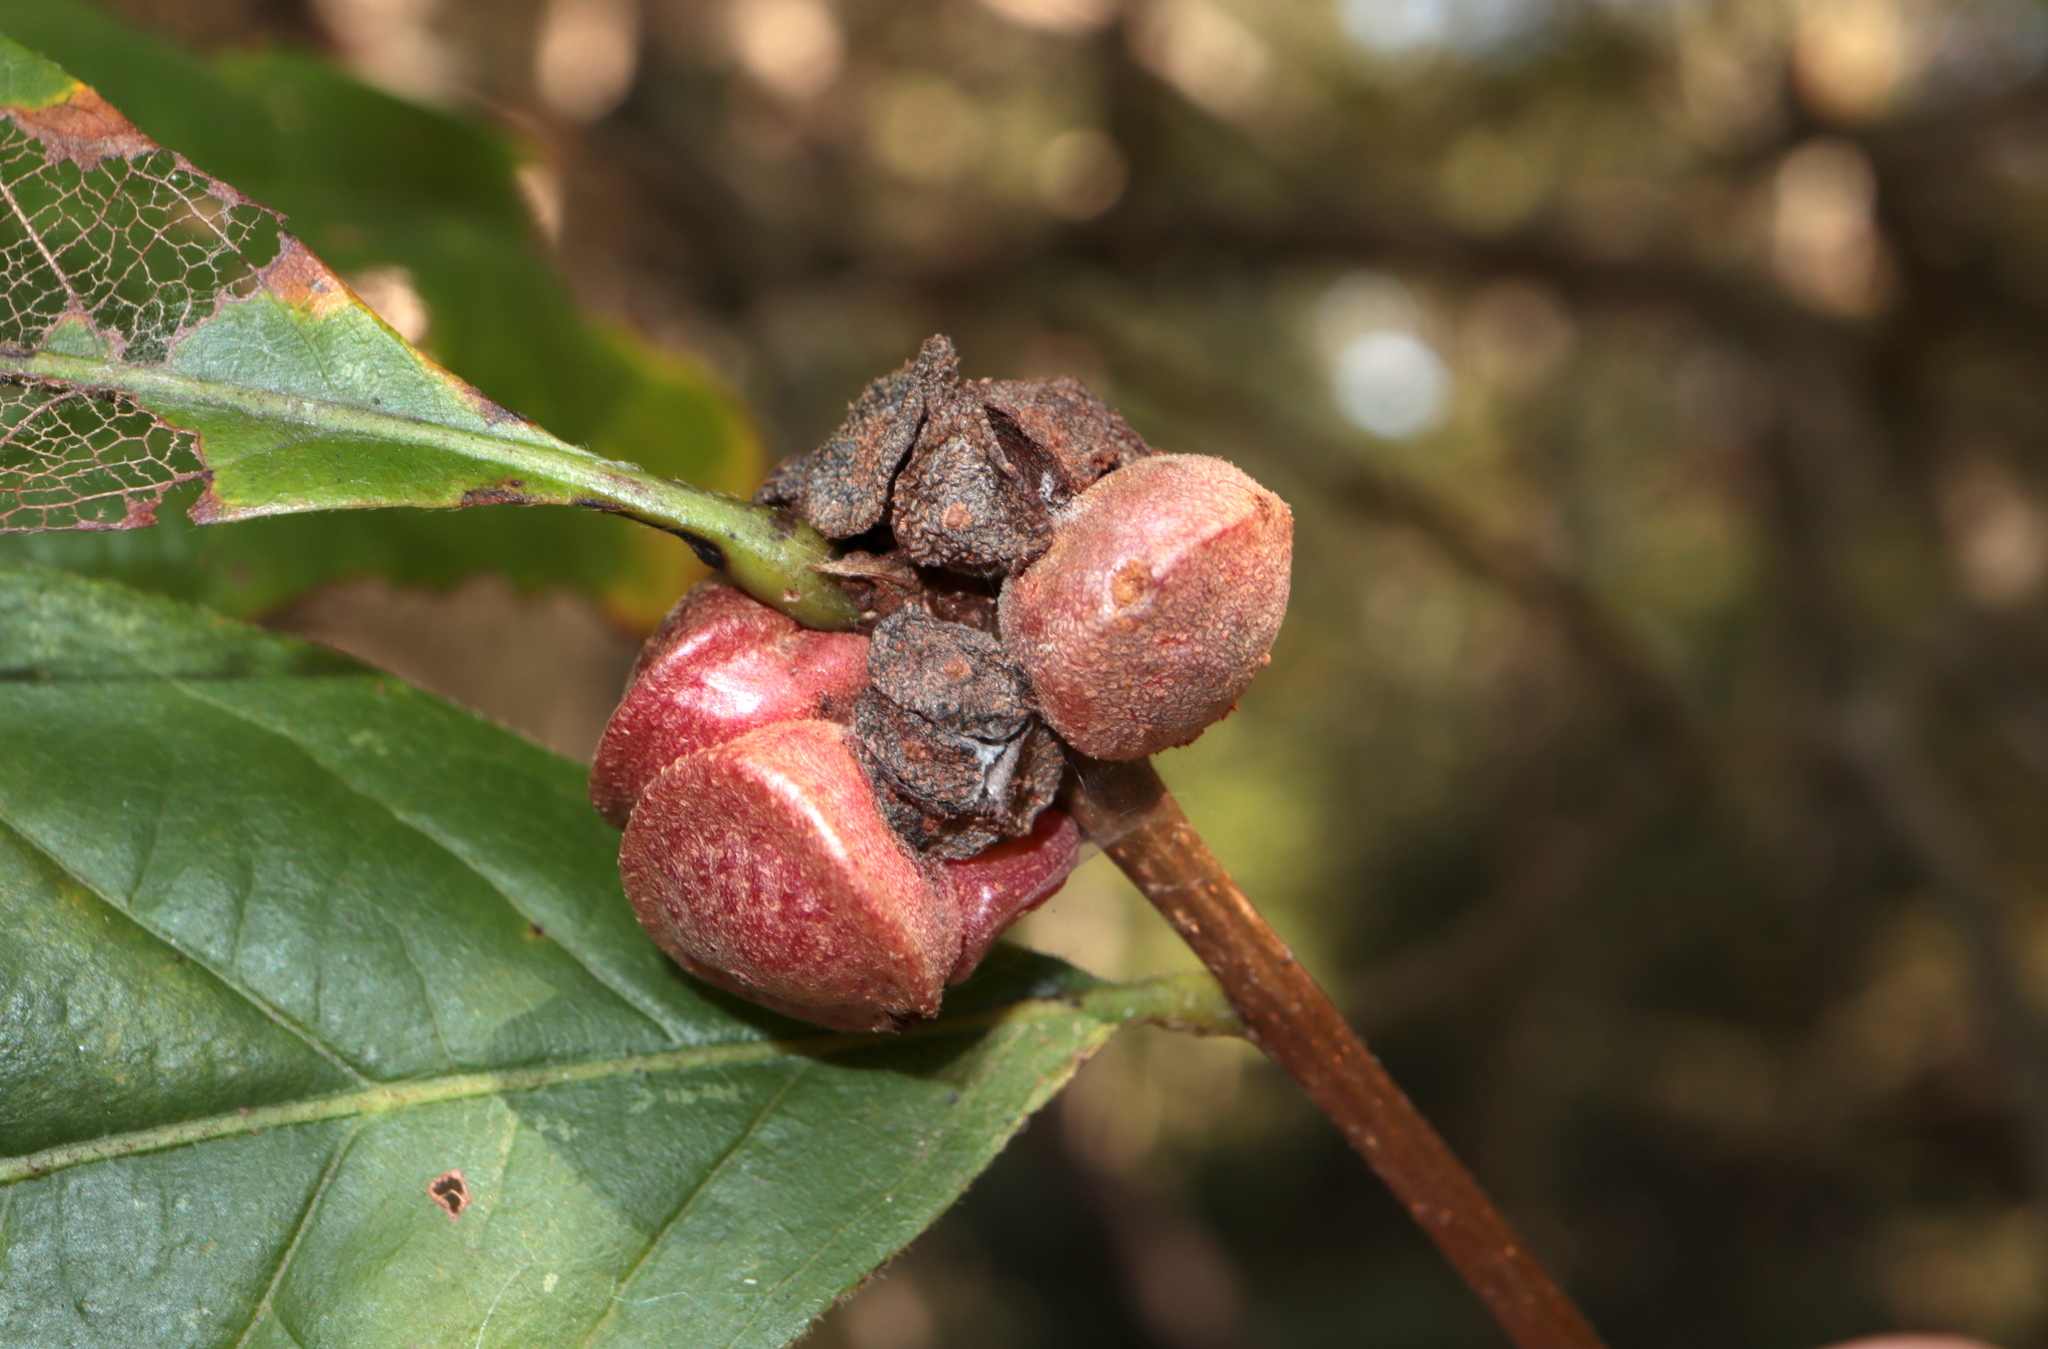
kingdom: Animalia
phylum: Arthropoda
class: Insecta
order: Hymenoptera
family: Cynipidae
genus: Andricus
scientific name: Andricus
